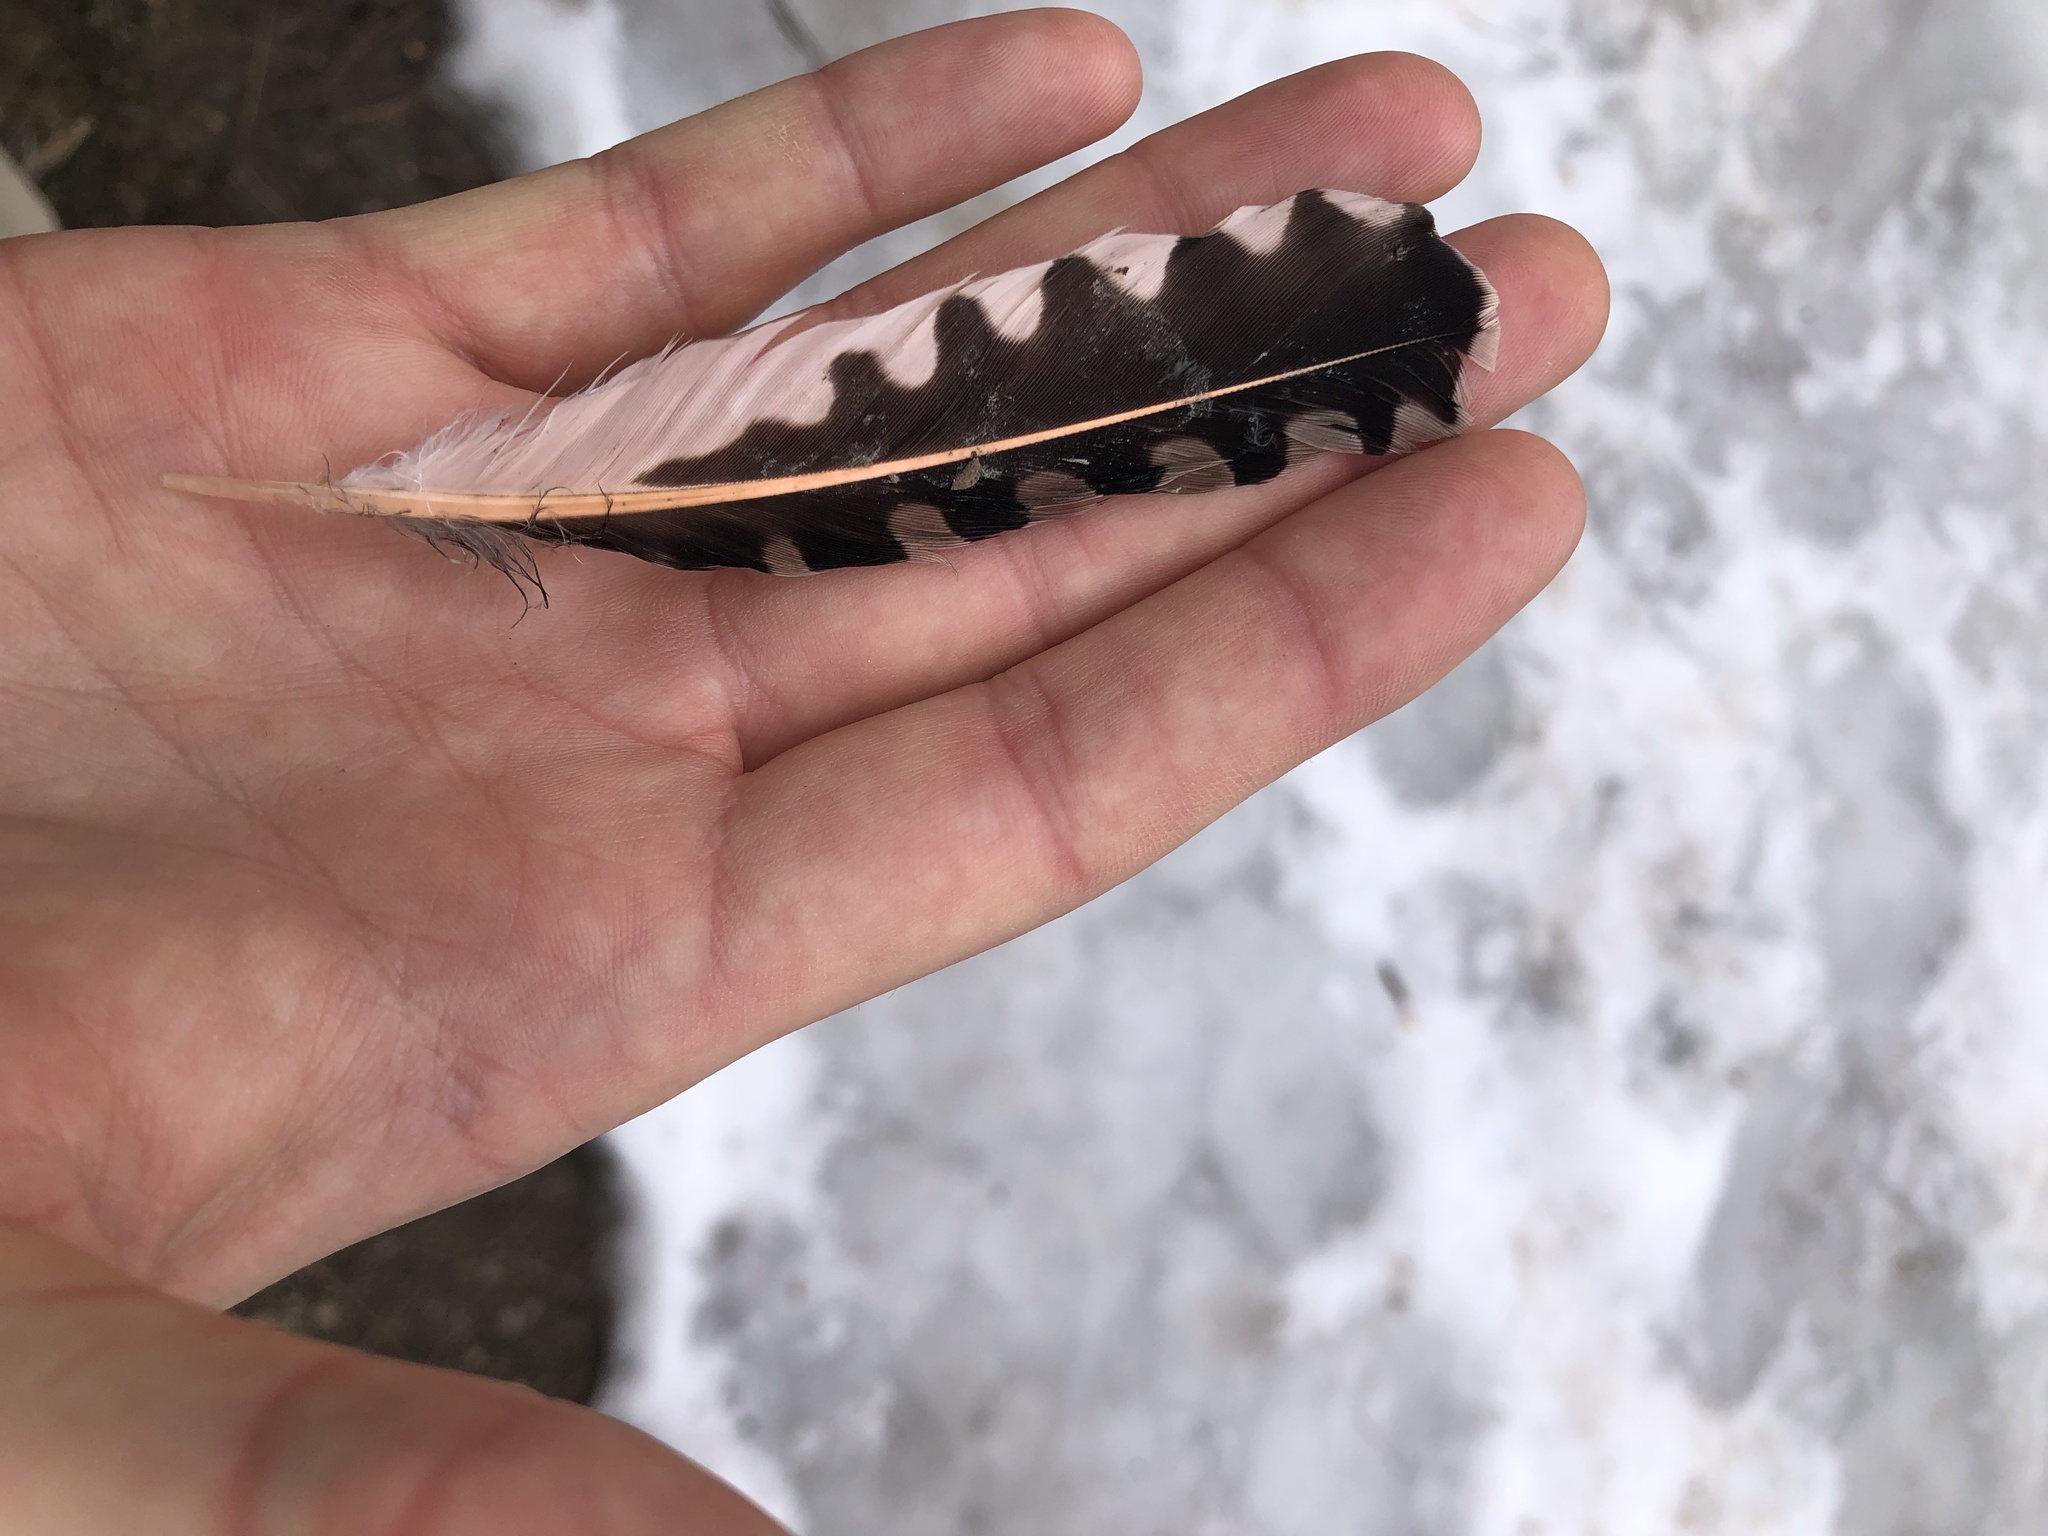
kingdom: Animalia
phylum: Chordata
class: Aves
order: Piciformes
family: Picidae
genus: Colaptes
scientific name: Colaptes auratus
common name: Northern flicker
